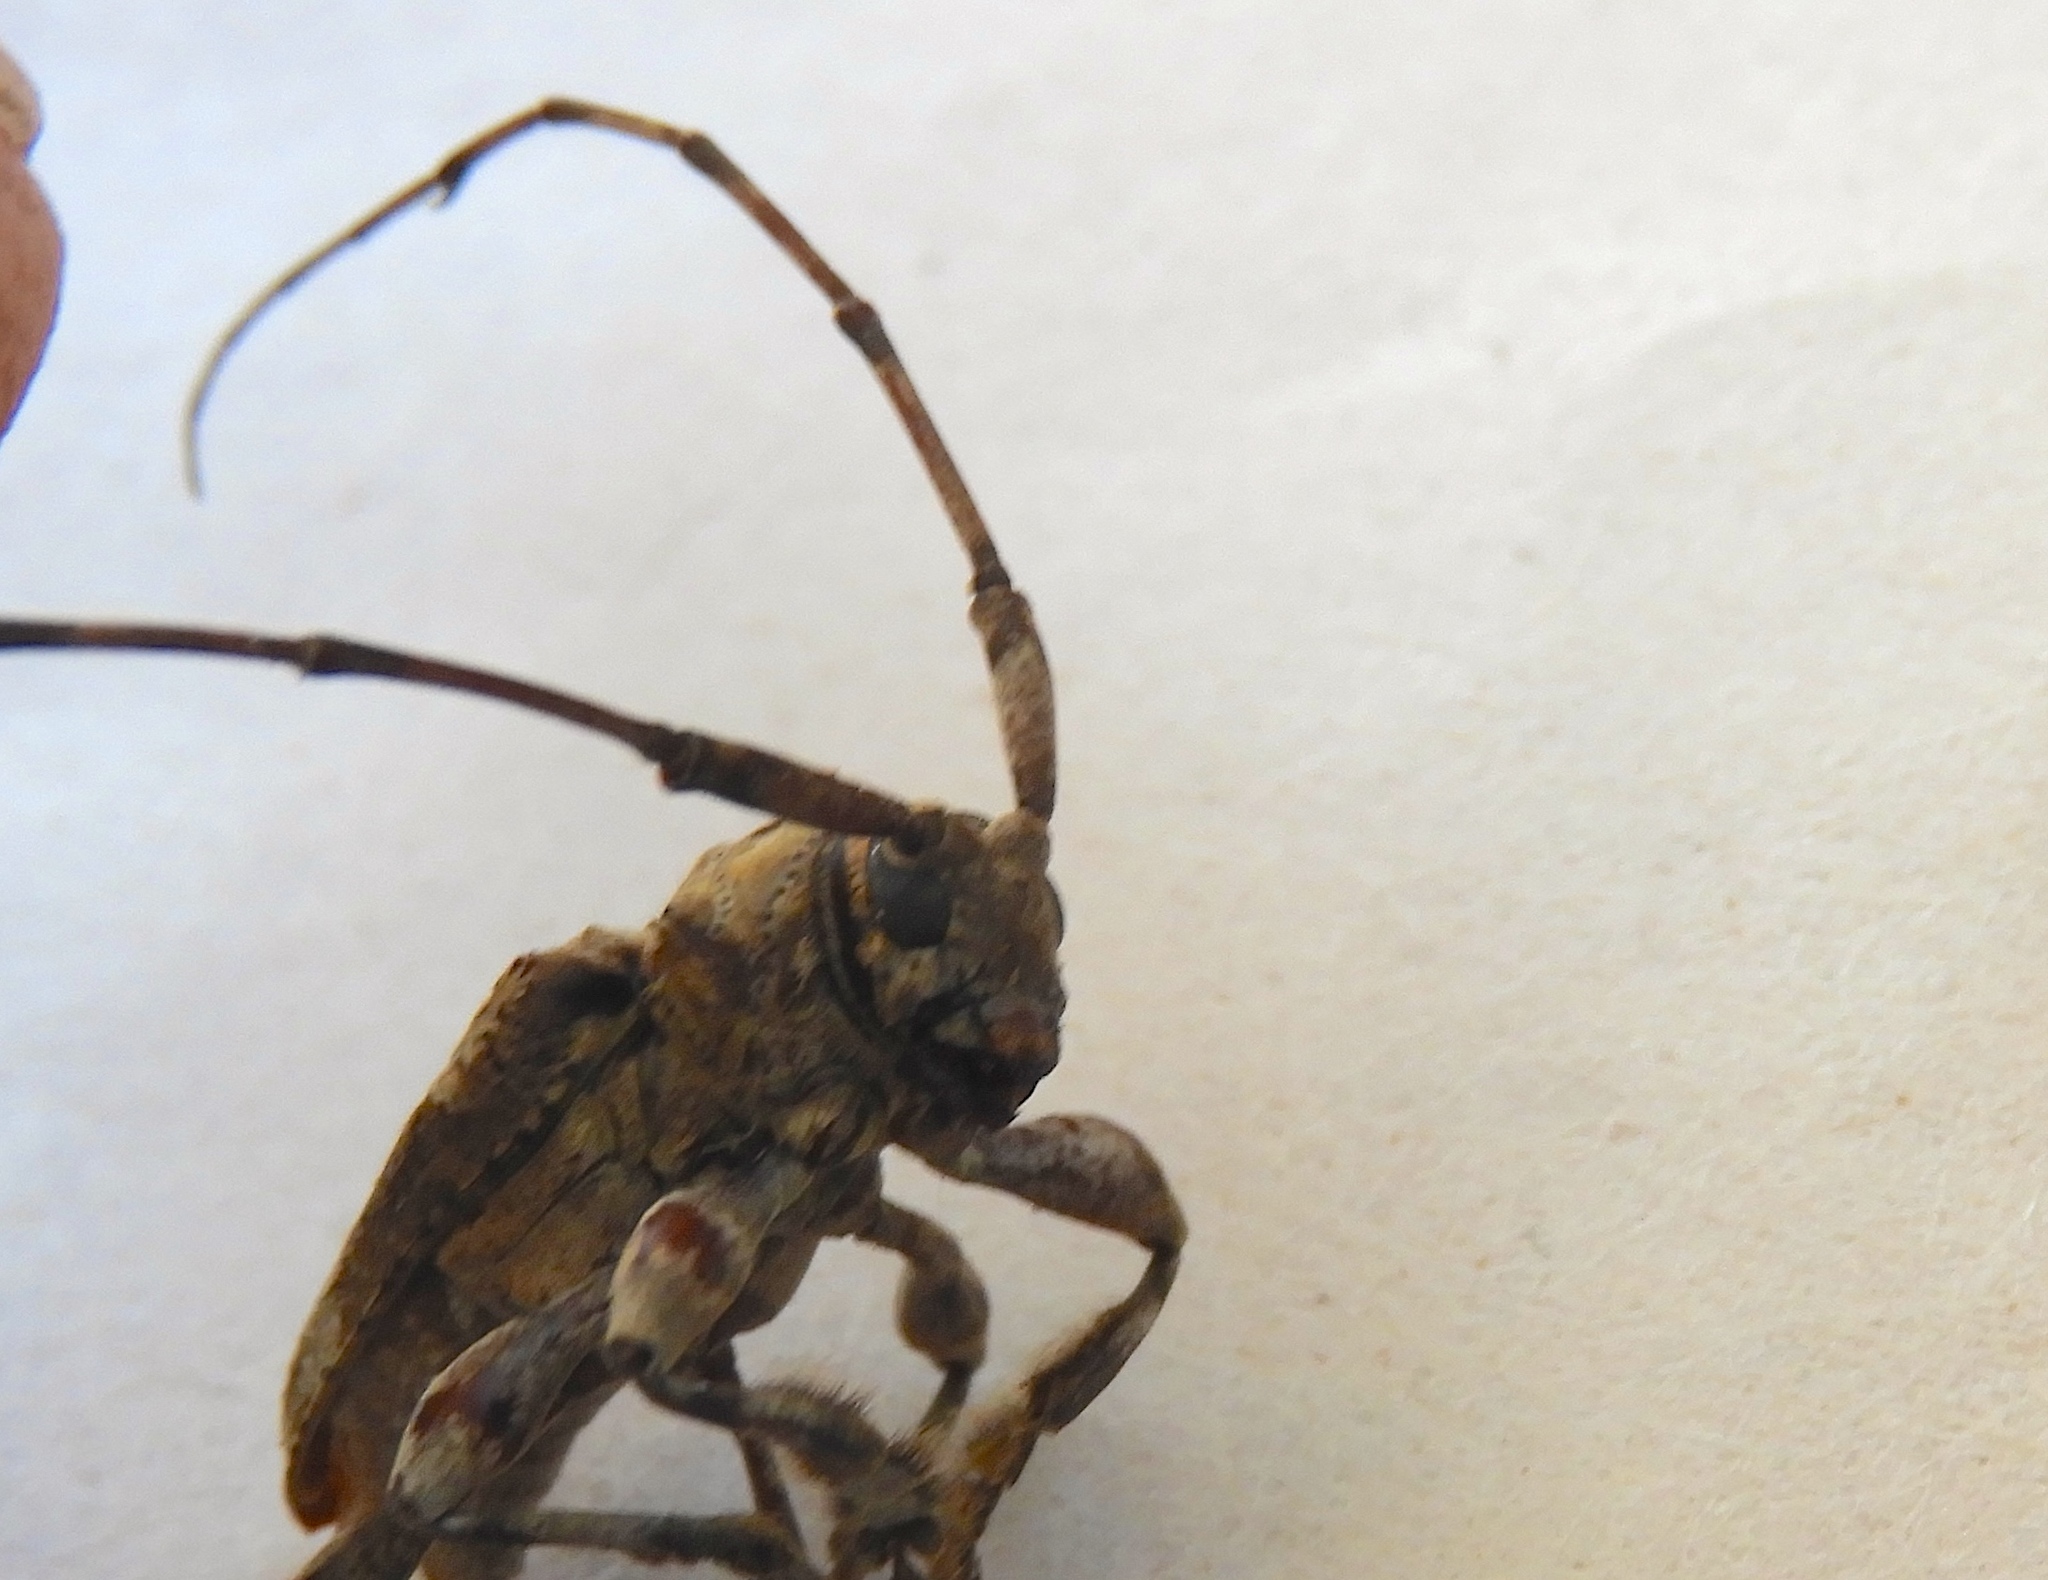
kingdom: Animalia
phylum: Arthropoda
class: Insecta
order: Coleoptera
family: Cerambycidae
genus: Lagocheirus
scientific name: Lagocheirus
